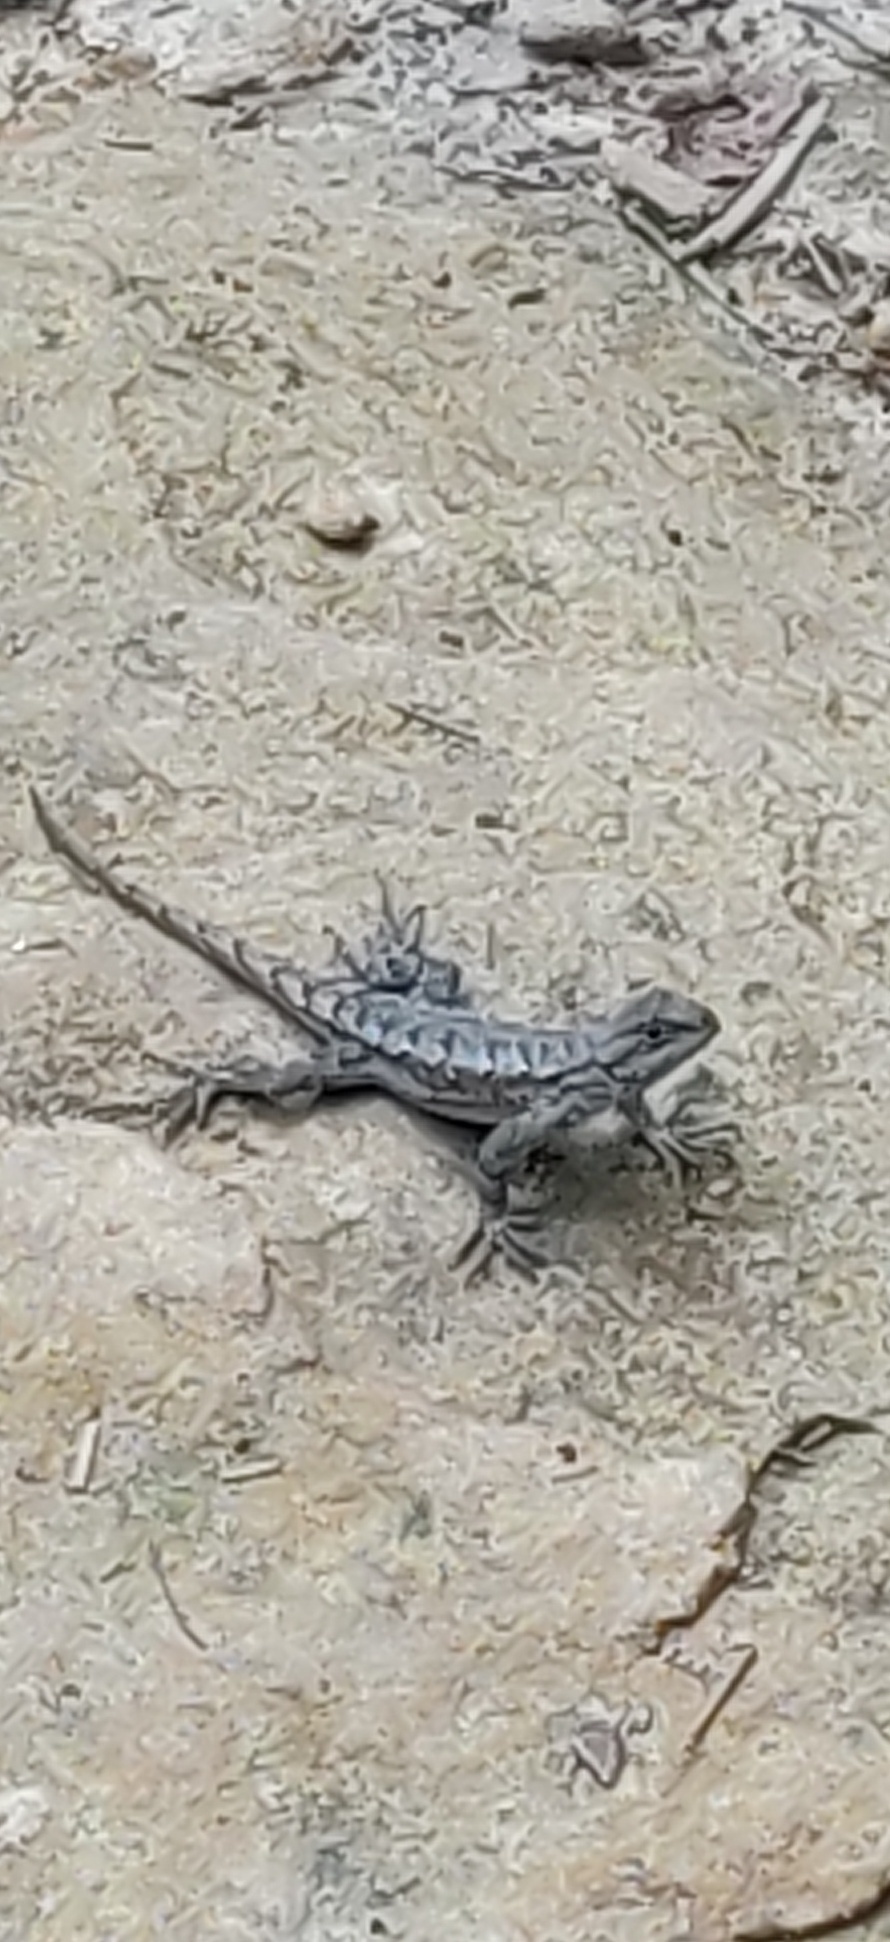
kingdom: Animalia
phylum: Chordata
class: Squamata
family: Phrynosomatidae
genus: Sceloporus
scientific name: Sceloporus undulatus
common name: Eastern fence lizard
